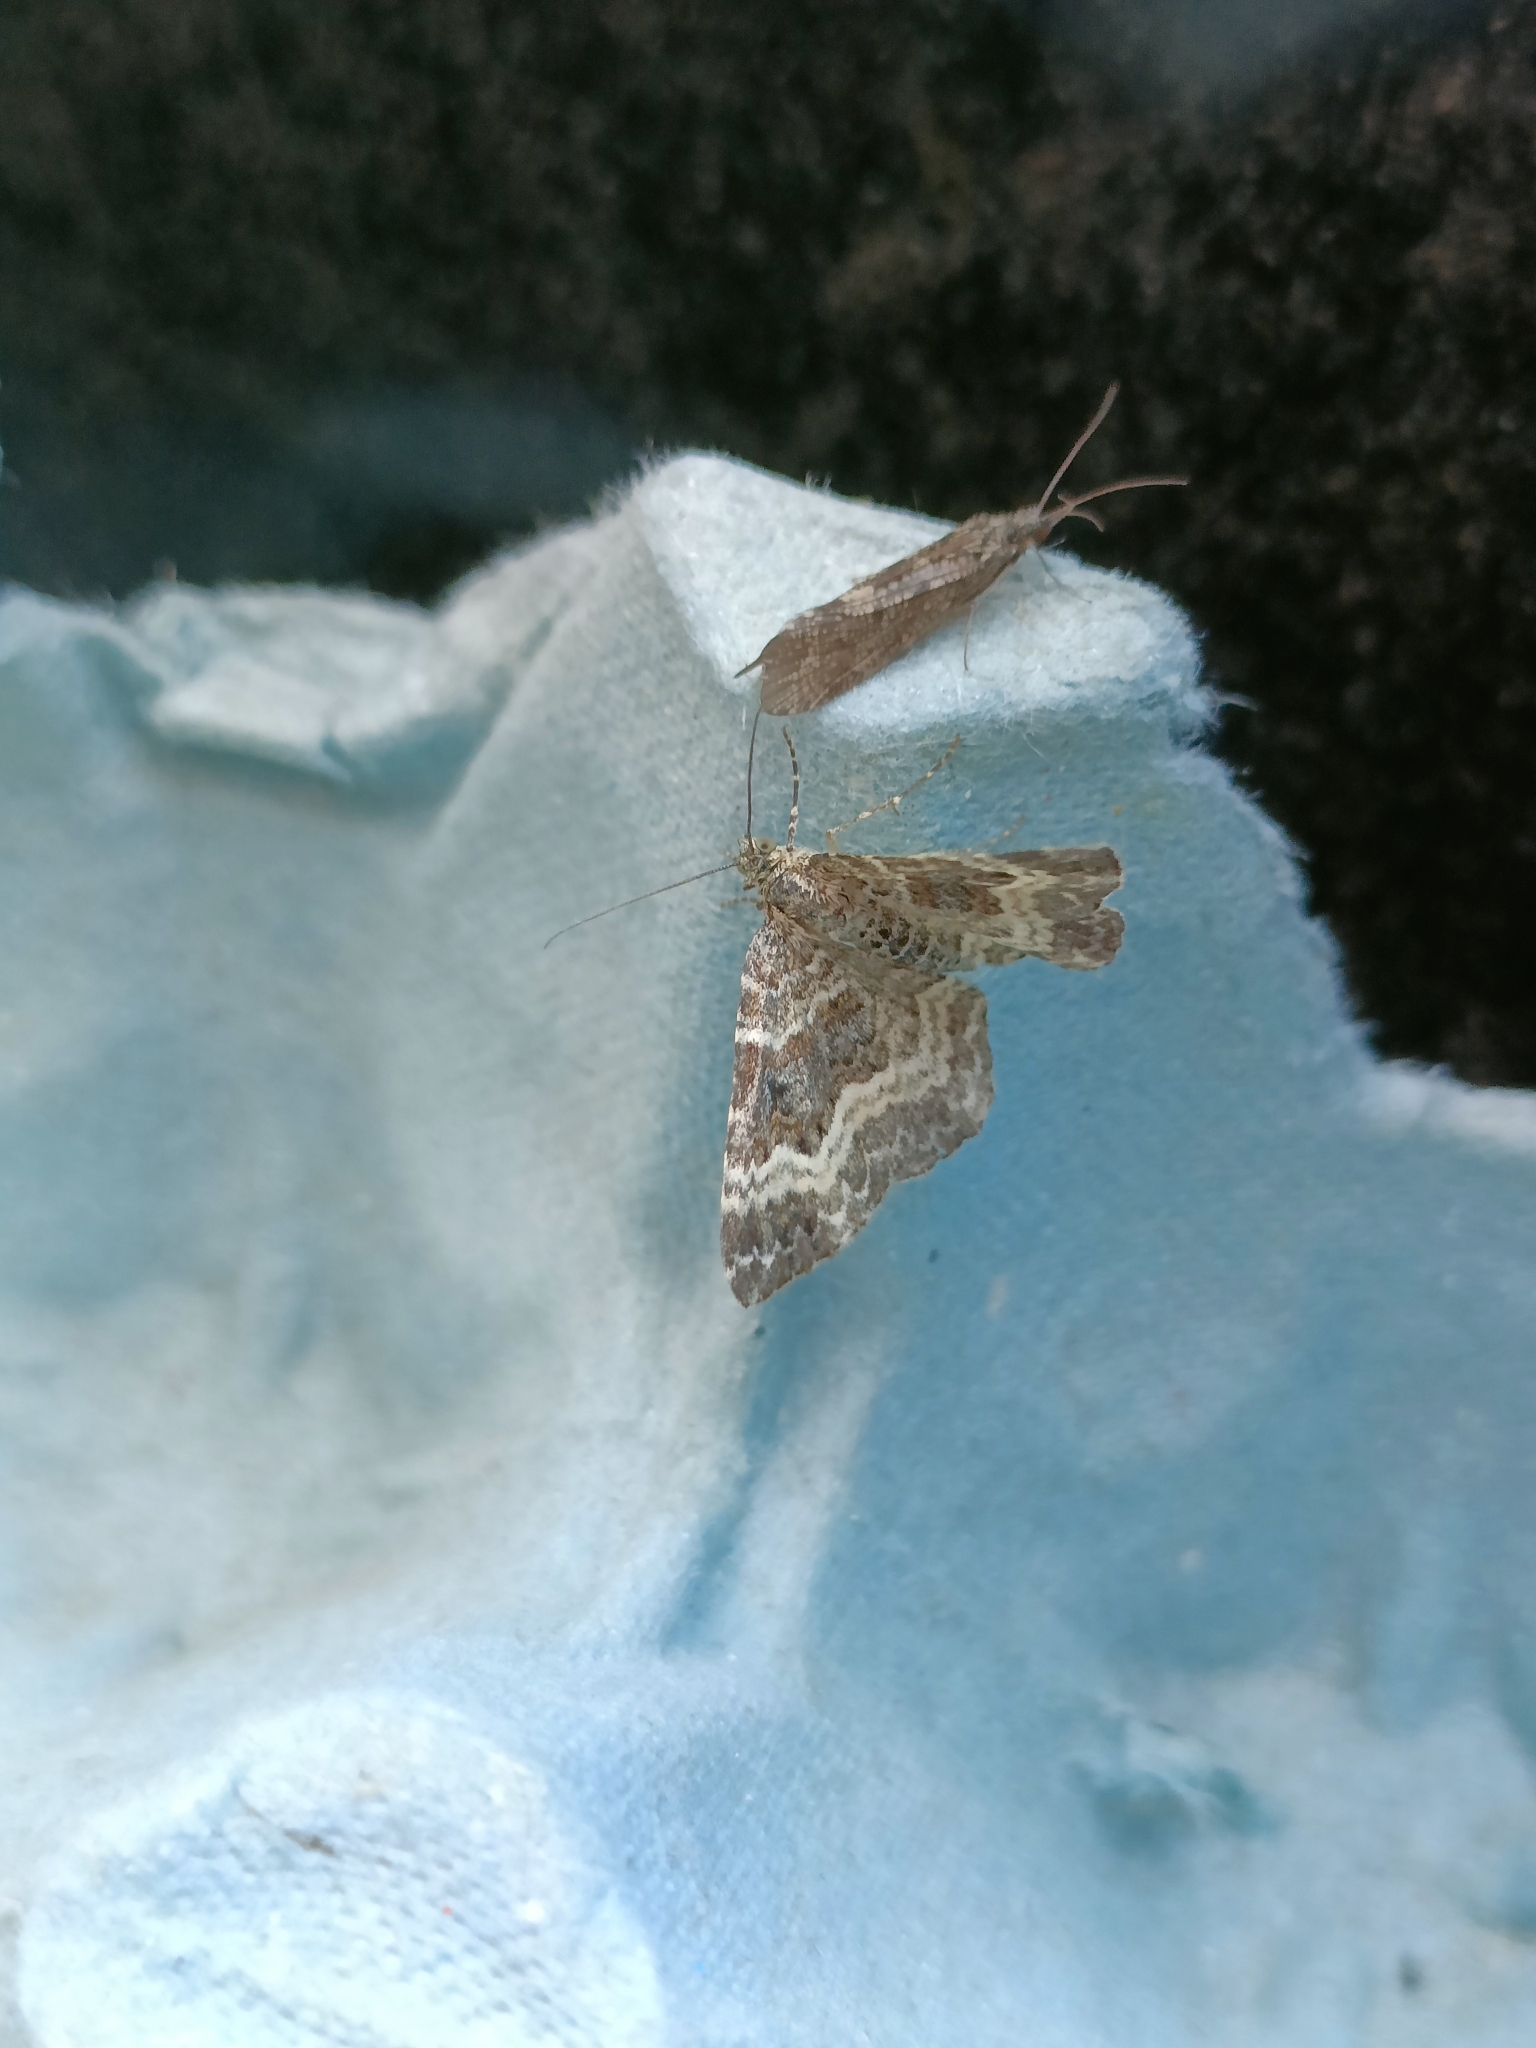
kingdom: Animalia
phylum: Arthropoda
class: Insecta
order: Lepidoptera
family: Geometridae
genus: Epirrhoe
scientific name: Epirrhoe alternata
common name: Common carpet
